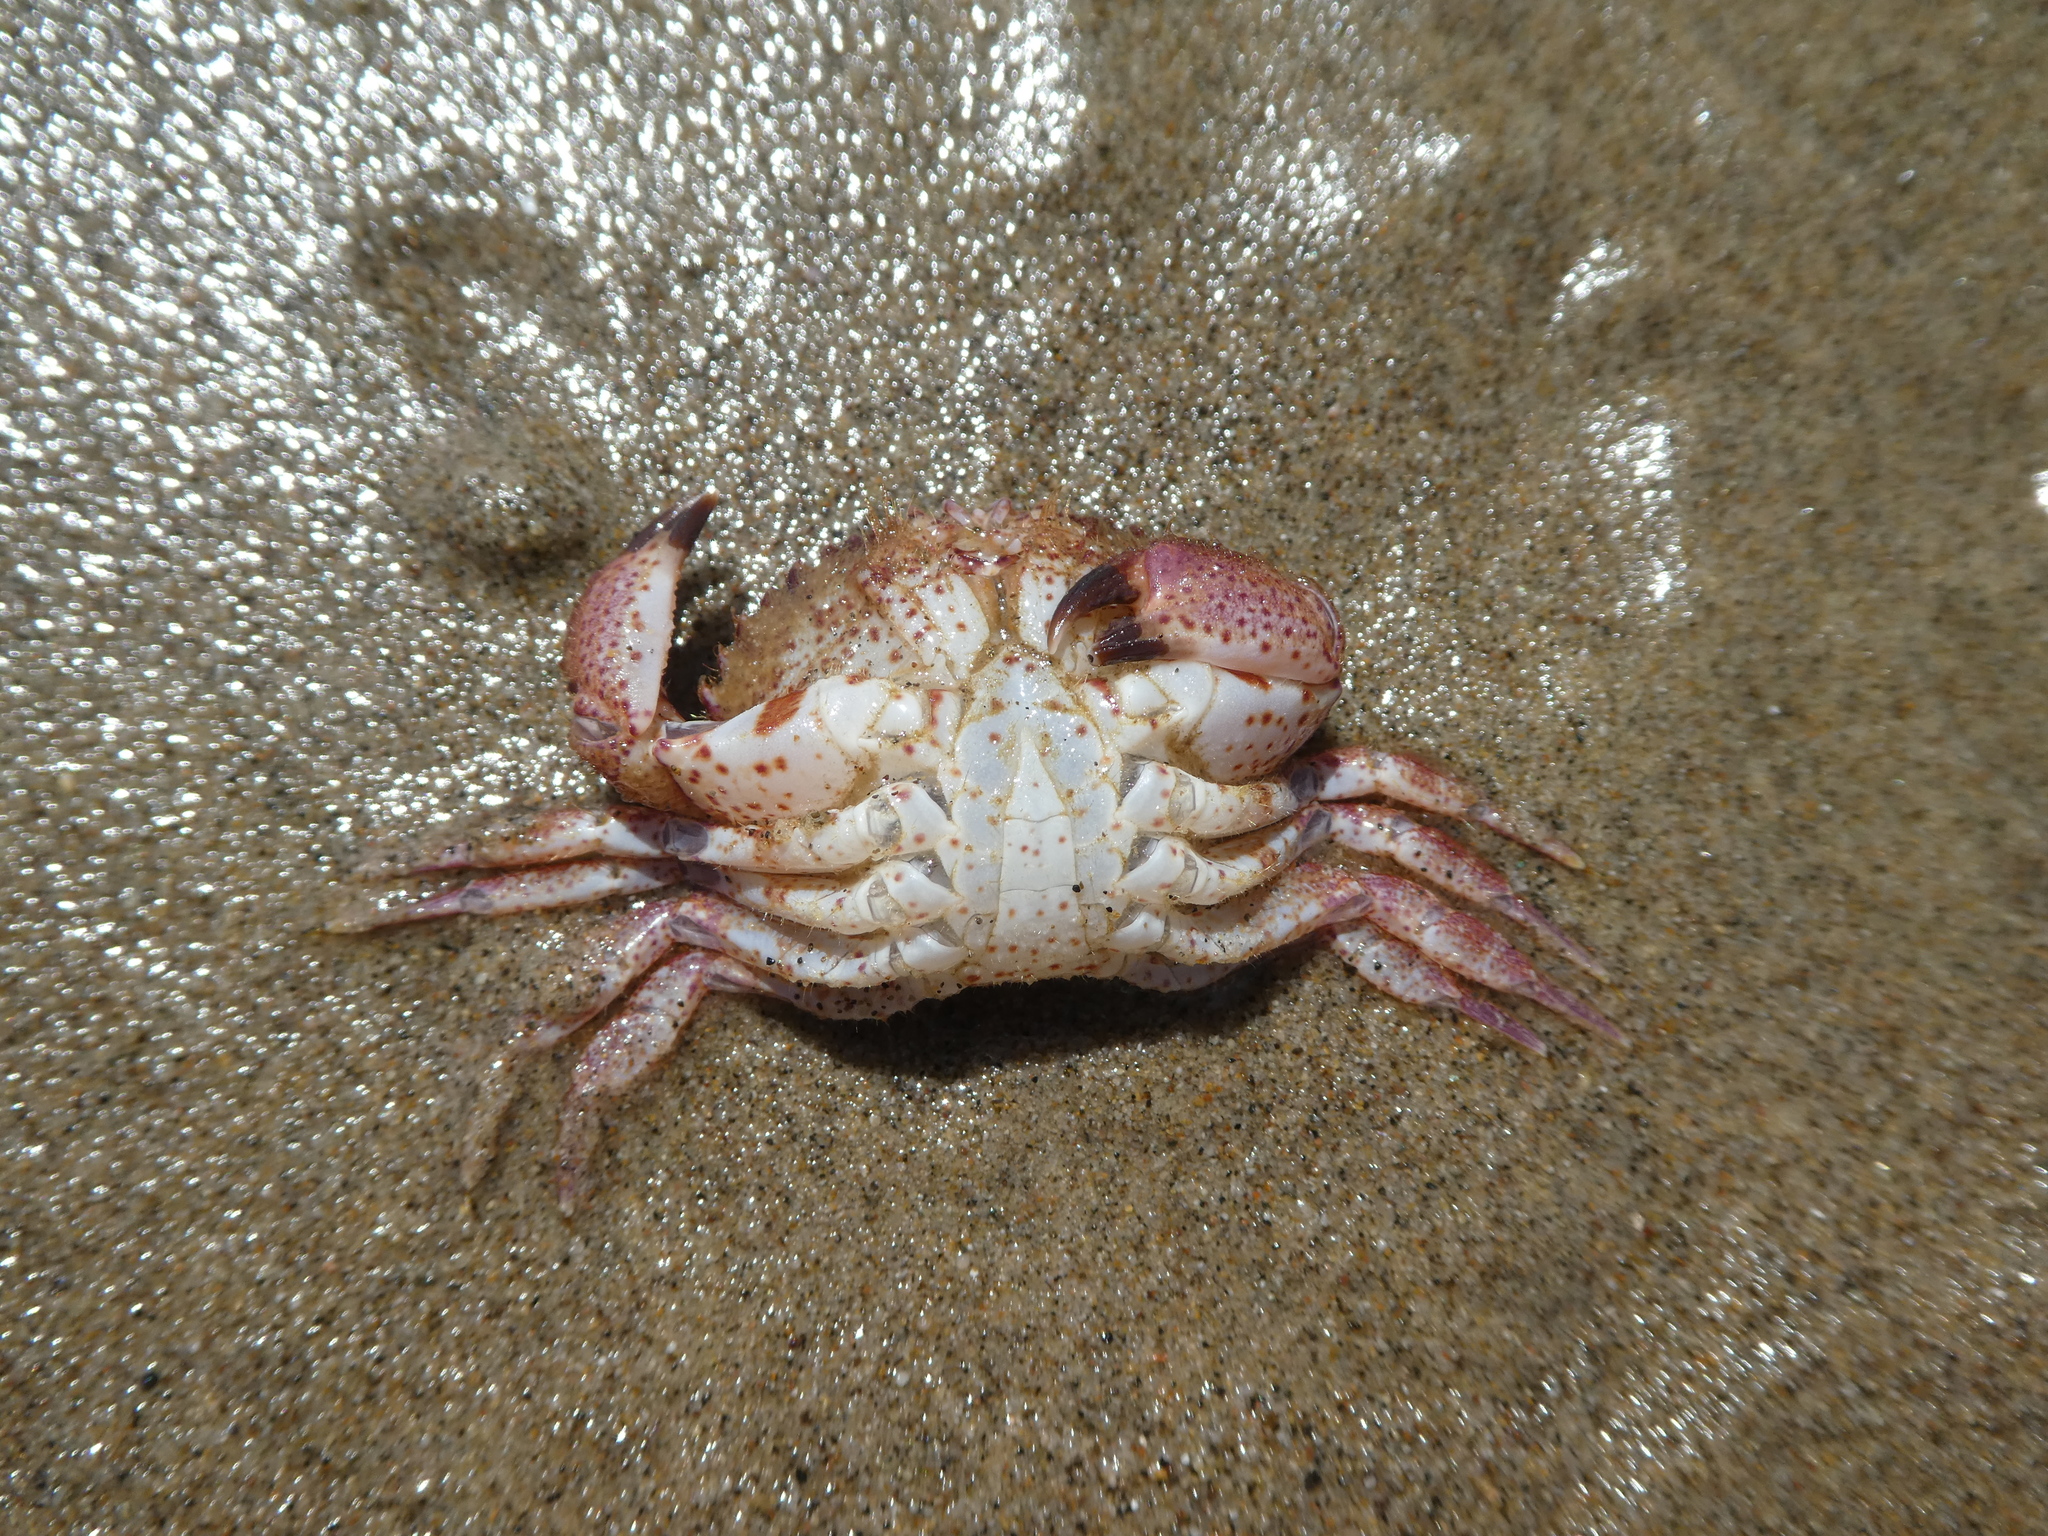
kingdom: Animalia
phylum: Arthropoda
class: Malacostraca
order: Decapoda
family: Cancridae
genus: Romaleon
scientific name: Romaleon antennarium
